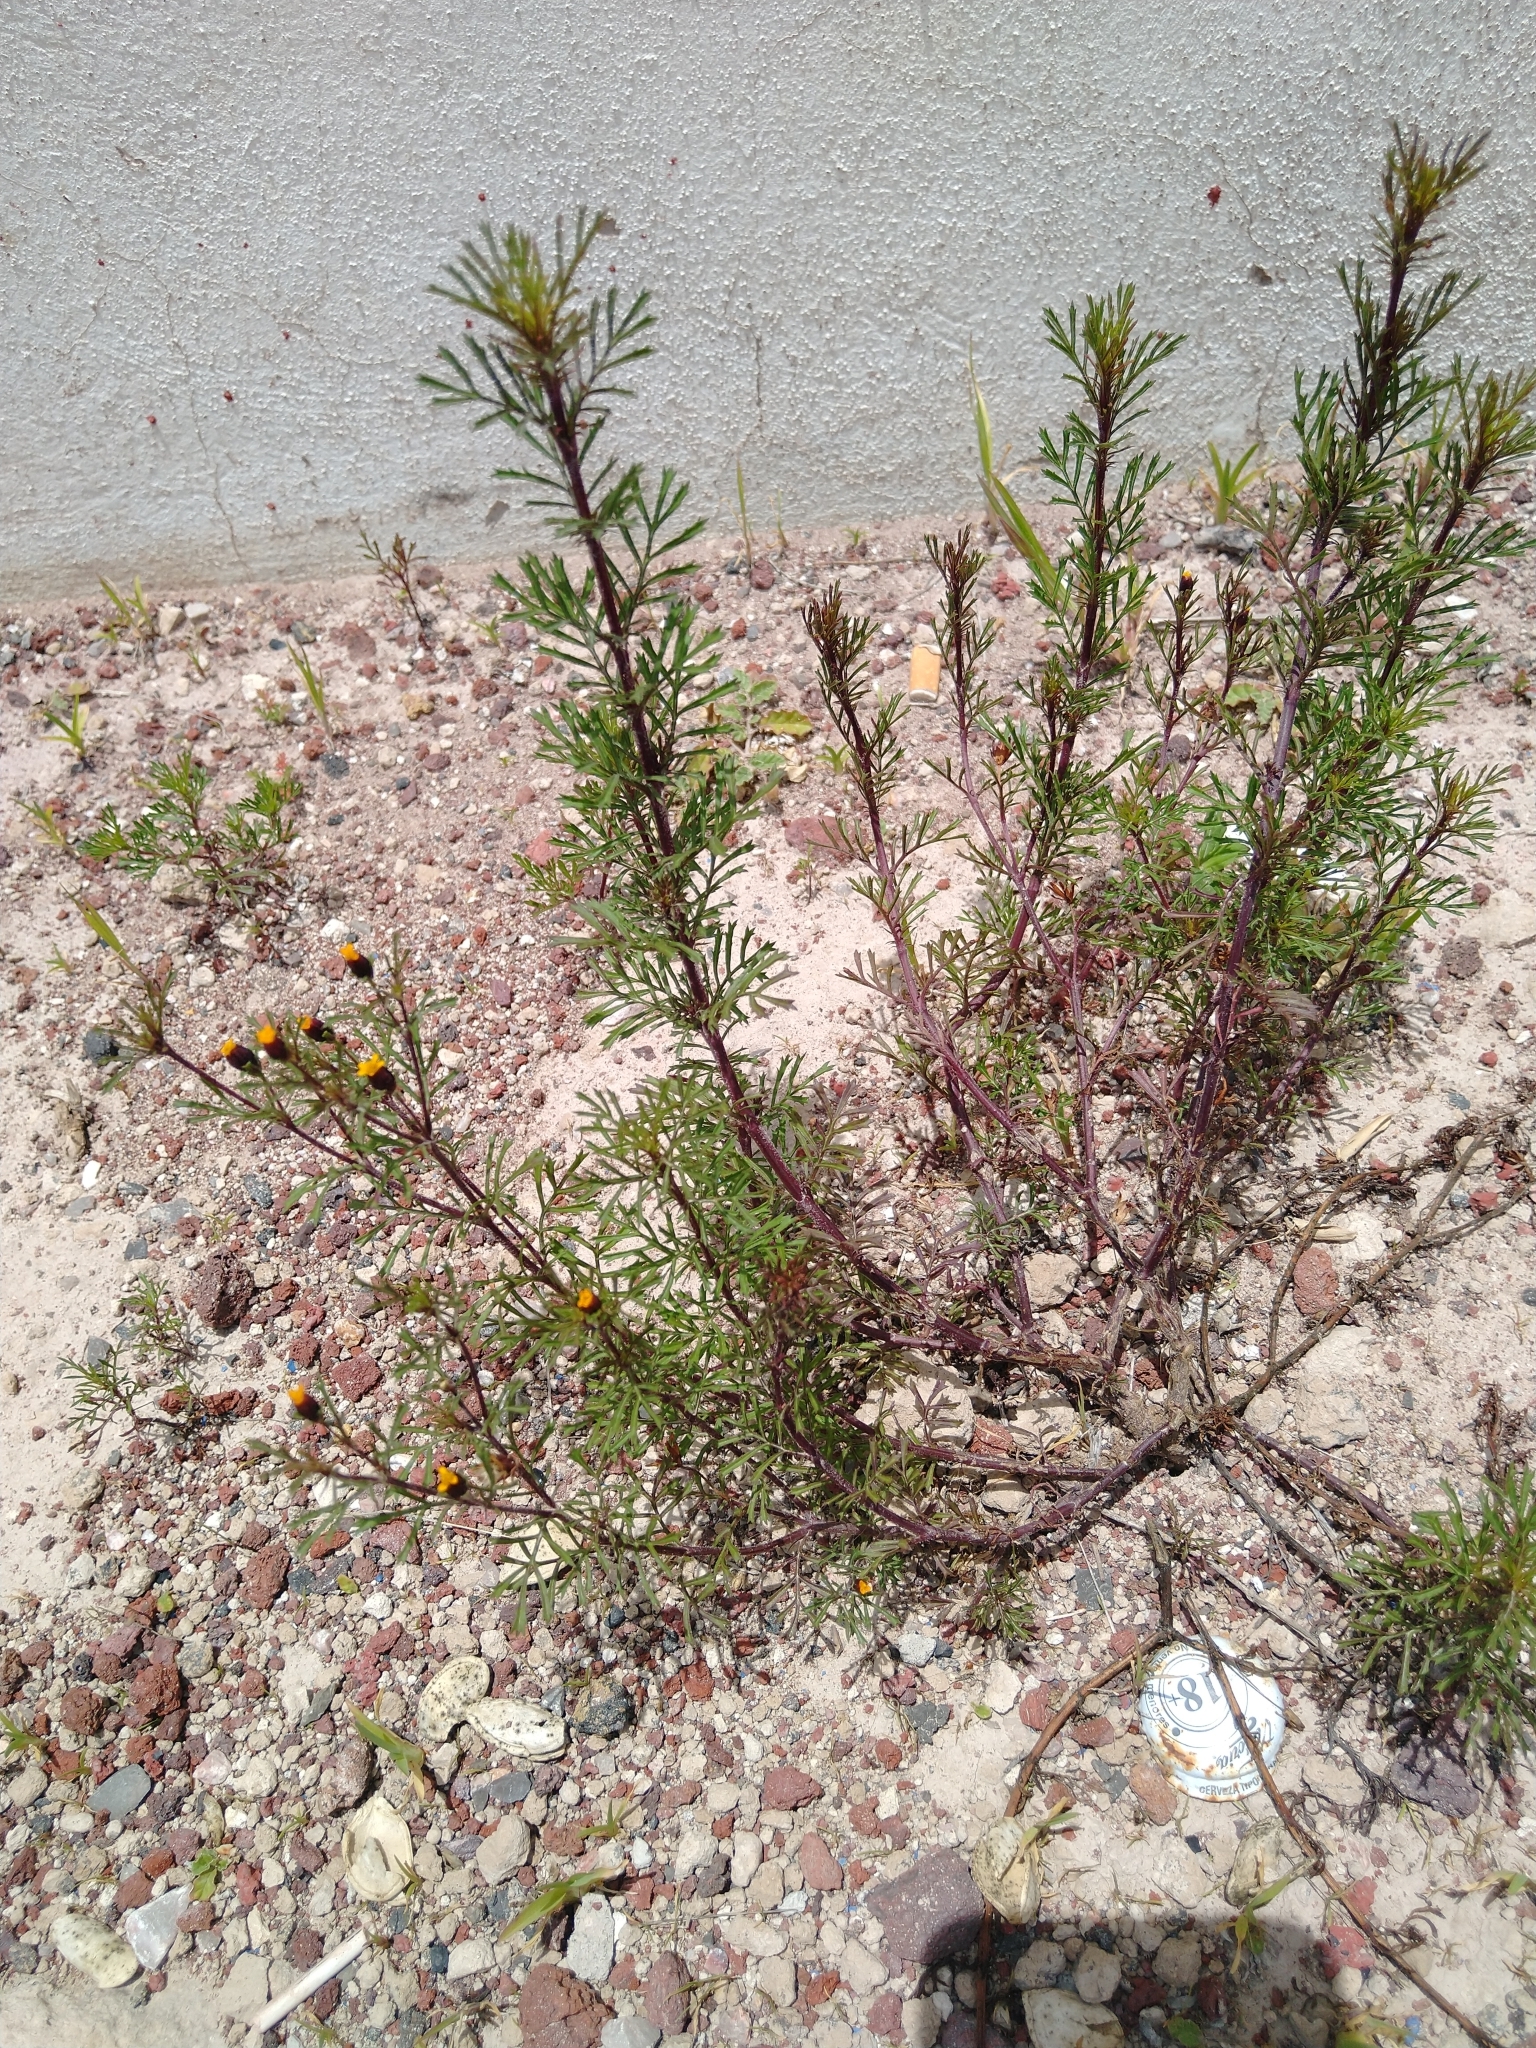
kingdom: Plantae
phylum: Tracheophyta
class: Magnoliopsida
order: Asterales
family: Asteraceae
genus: Dyssodia
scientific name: Dyssodia papposa
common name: Dogweed
